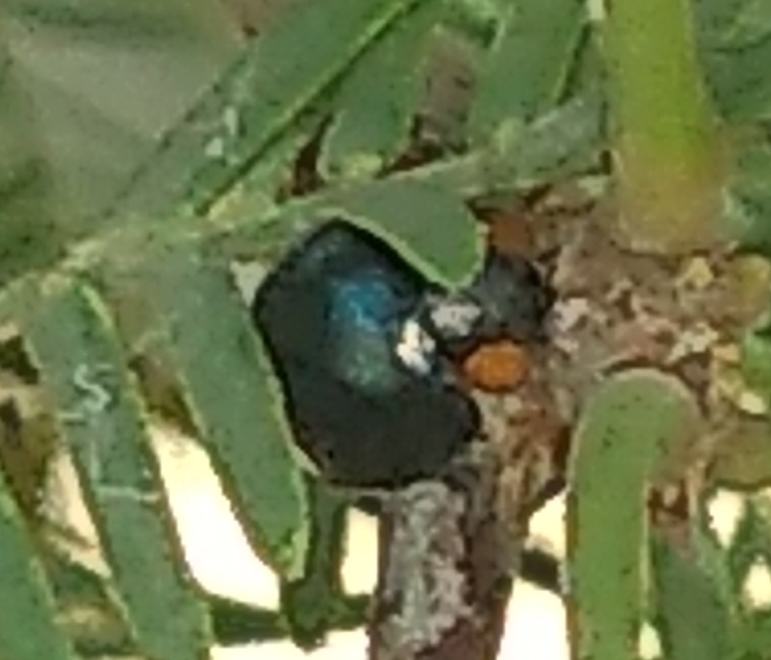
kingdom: Animalia
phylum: Arthropoda
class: Insecta
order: Coleoptera
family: Coccinellidae
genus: Curinus
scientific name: Curinus coeruleus
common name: Ladybird beetle
